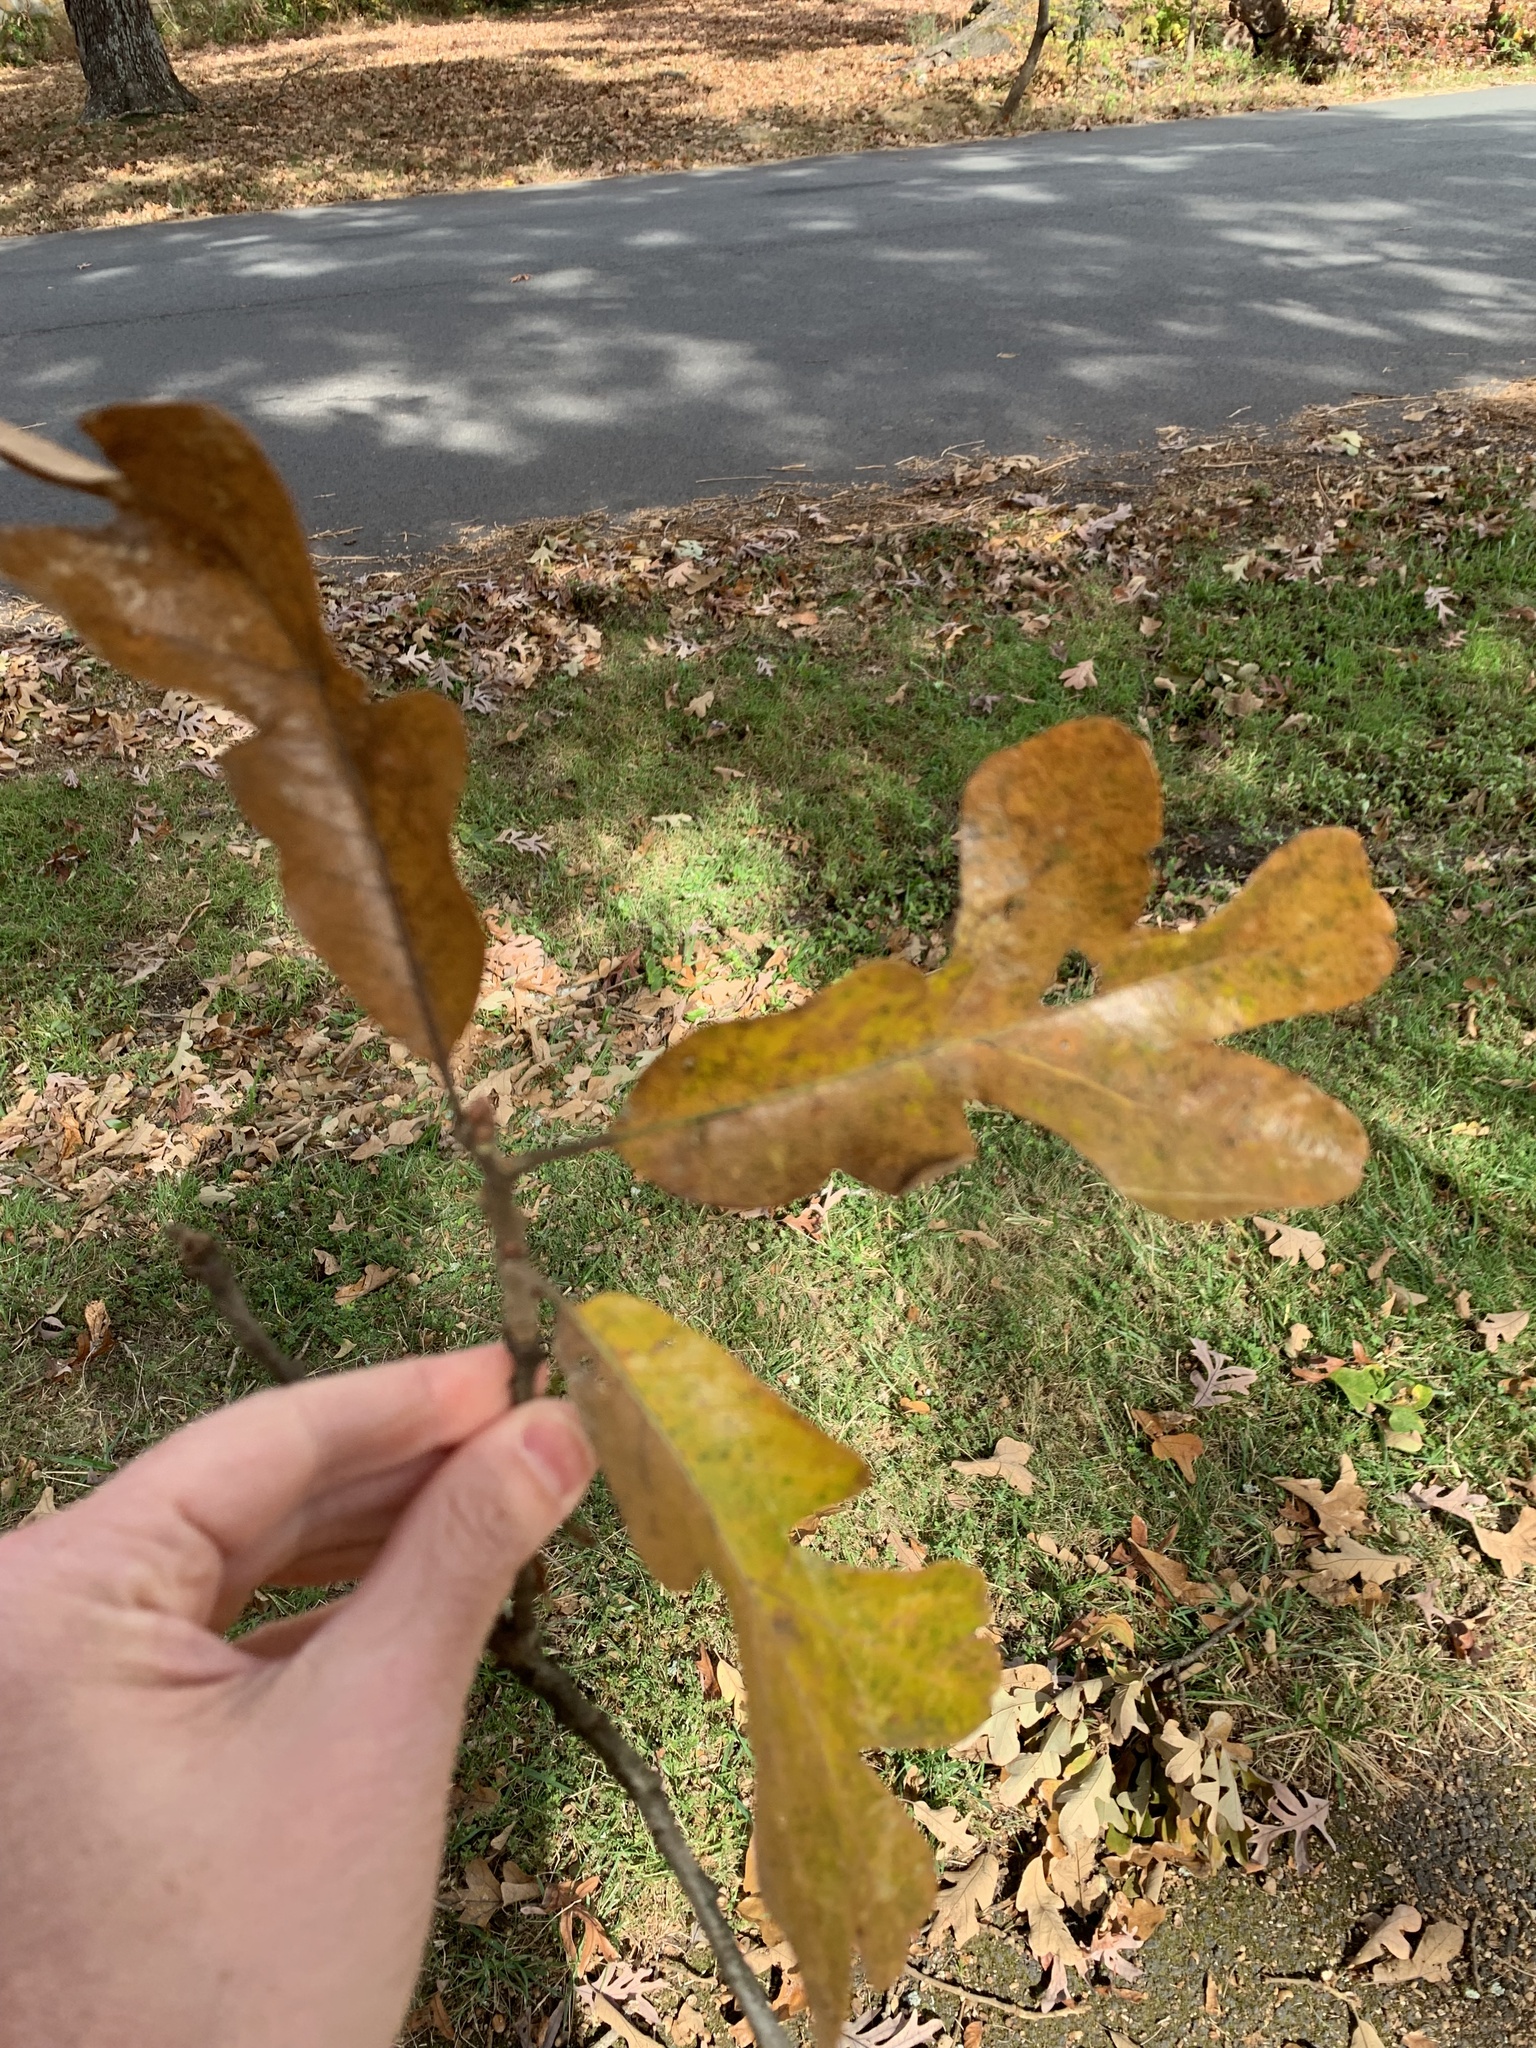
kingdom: Plantae
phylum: Tracheophyta
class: Magnoliopsida
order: Fagales
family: Fagaceae
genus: Quercus
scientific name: Quercus stellata
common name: Post oak
